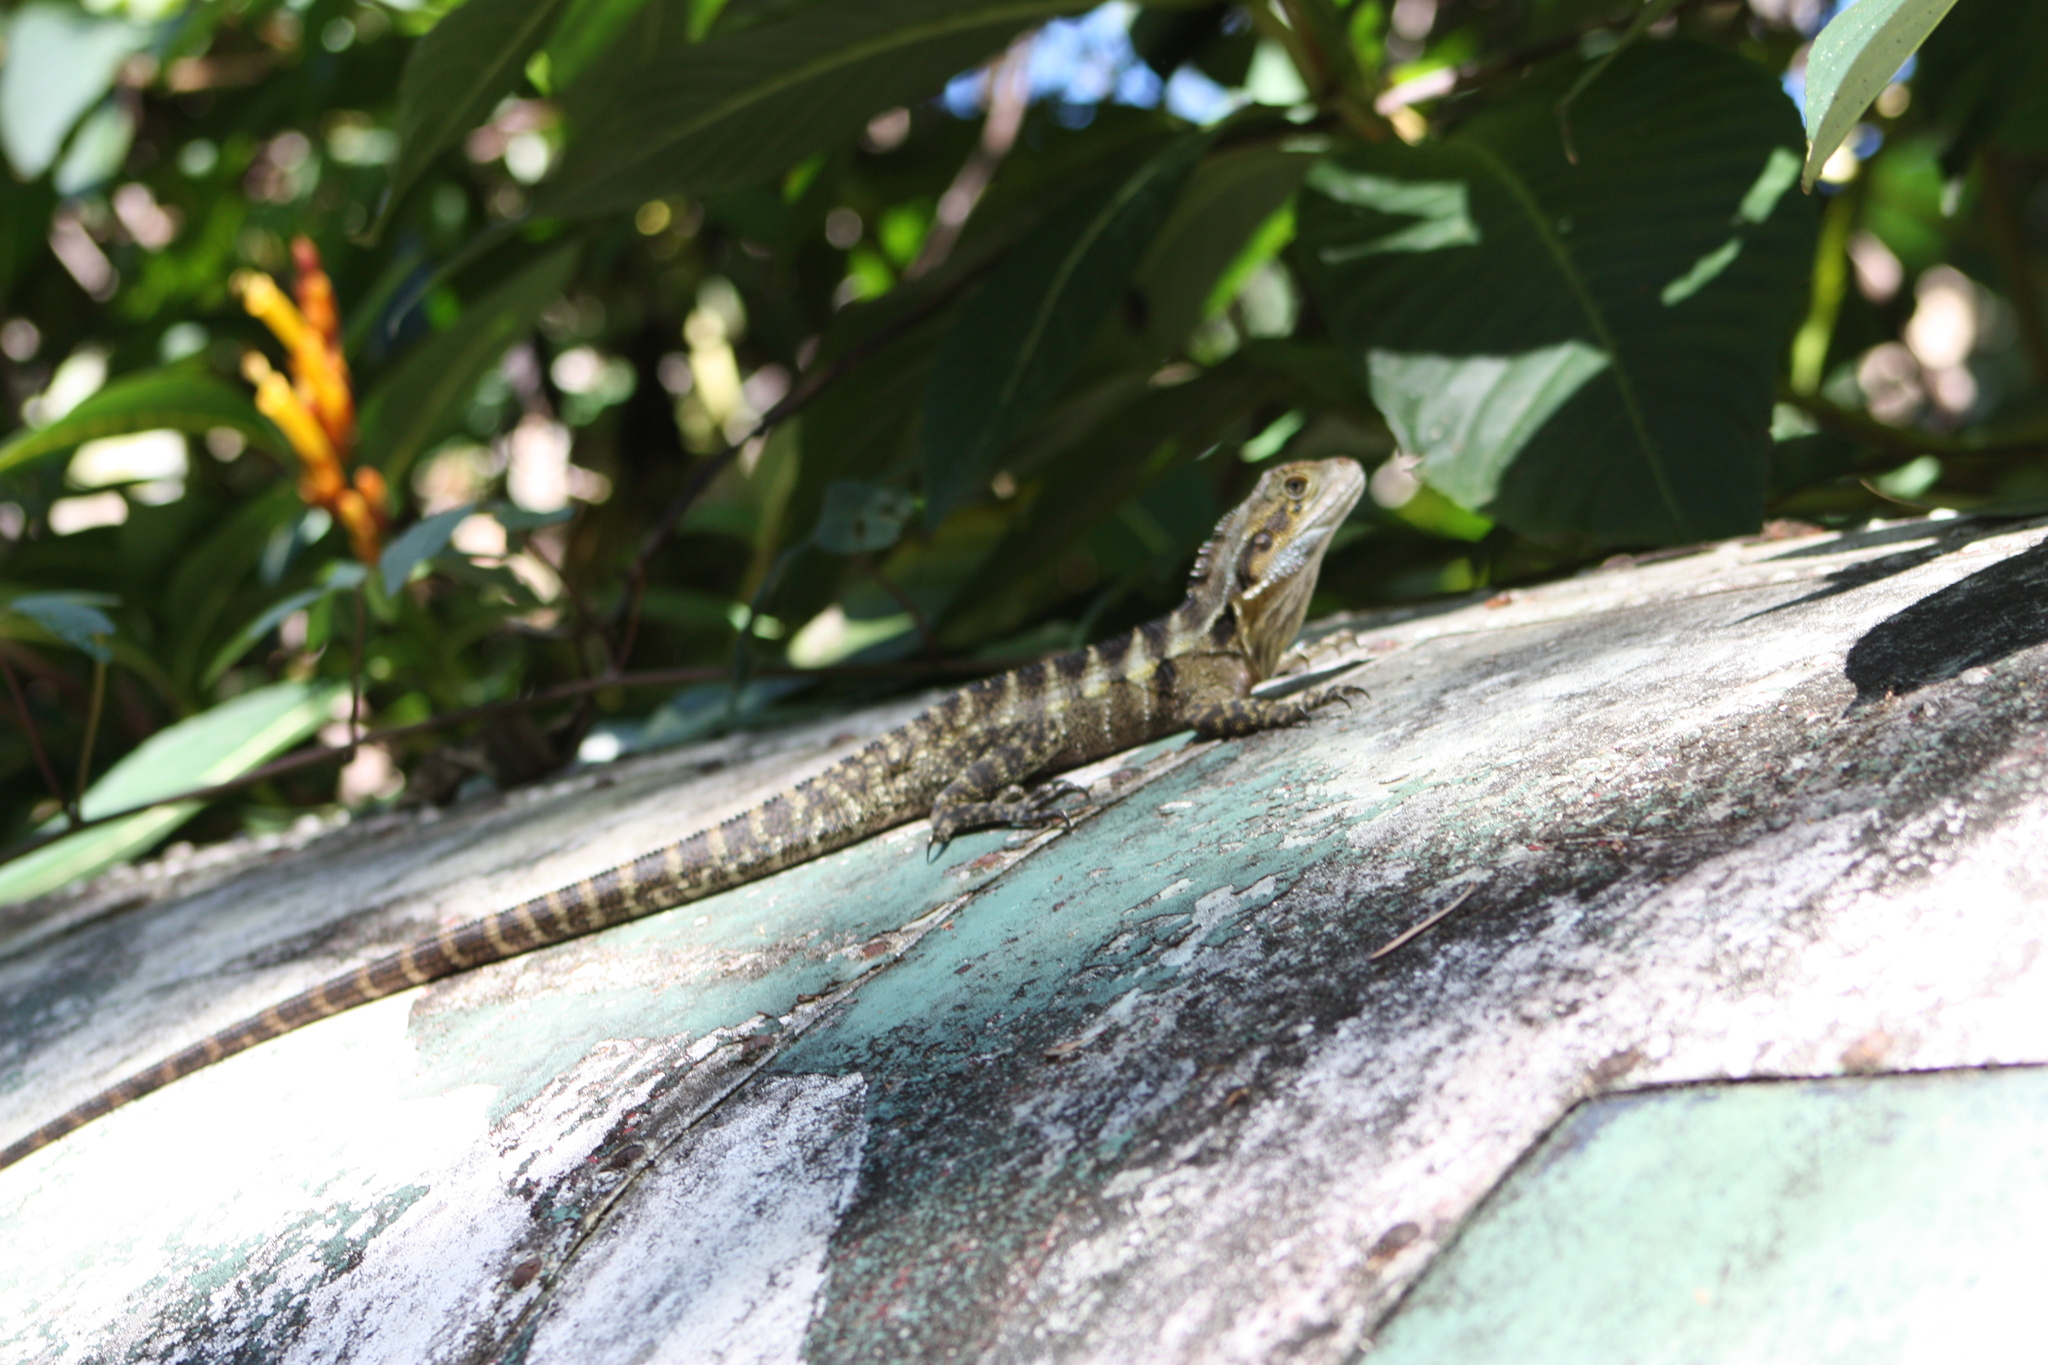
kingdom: Animalia
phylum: Chordata
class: Squamata
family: Agamidae
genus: Intellagama
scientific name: Intellagama lesueurii
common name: Eastern water dragon
